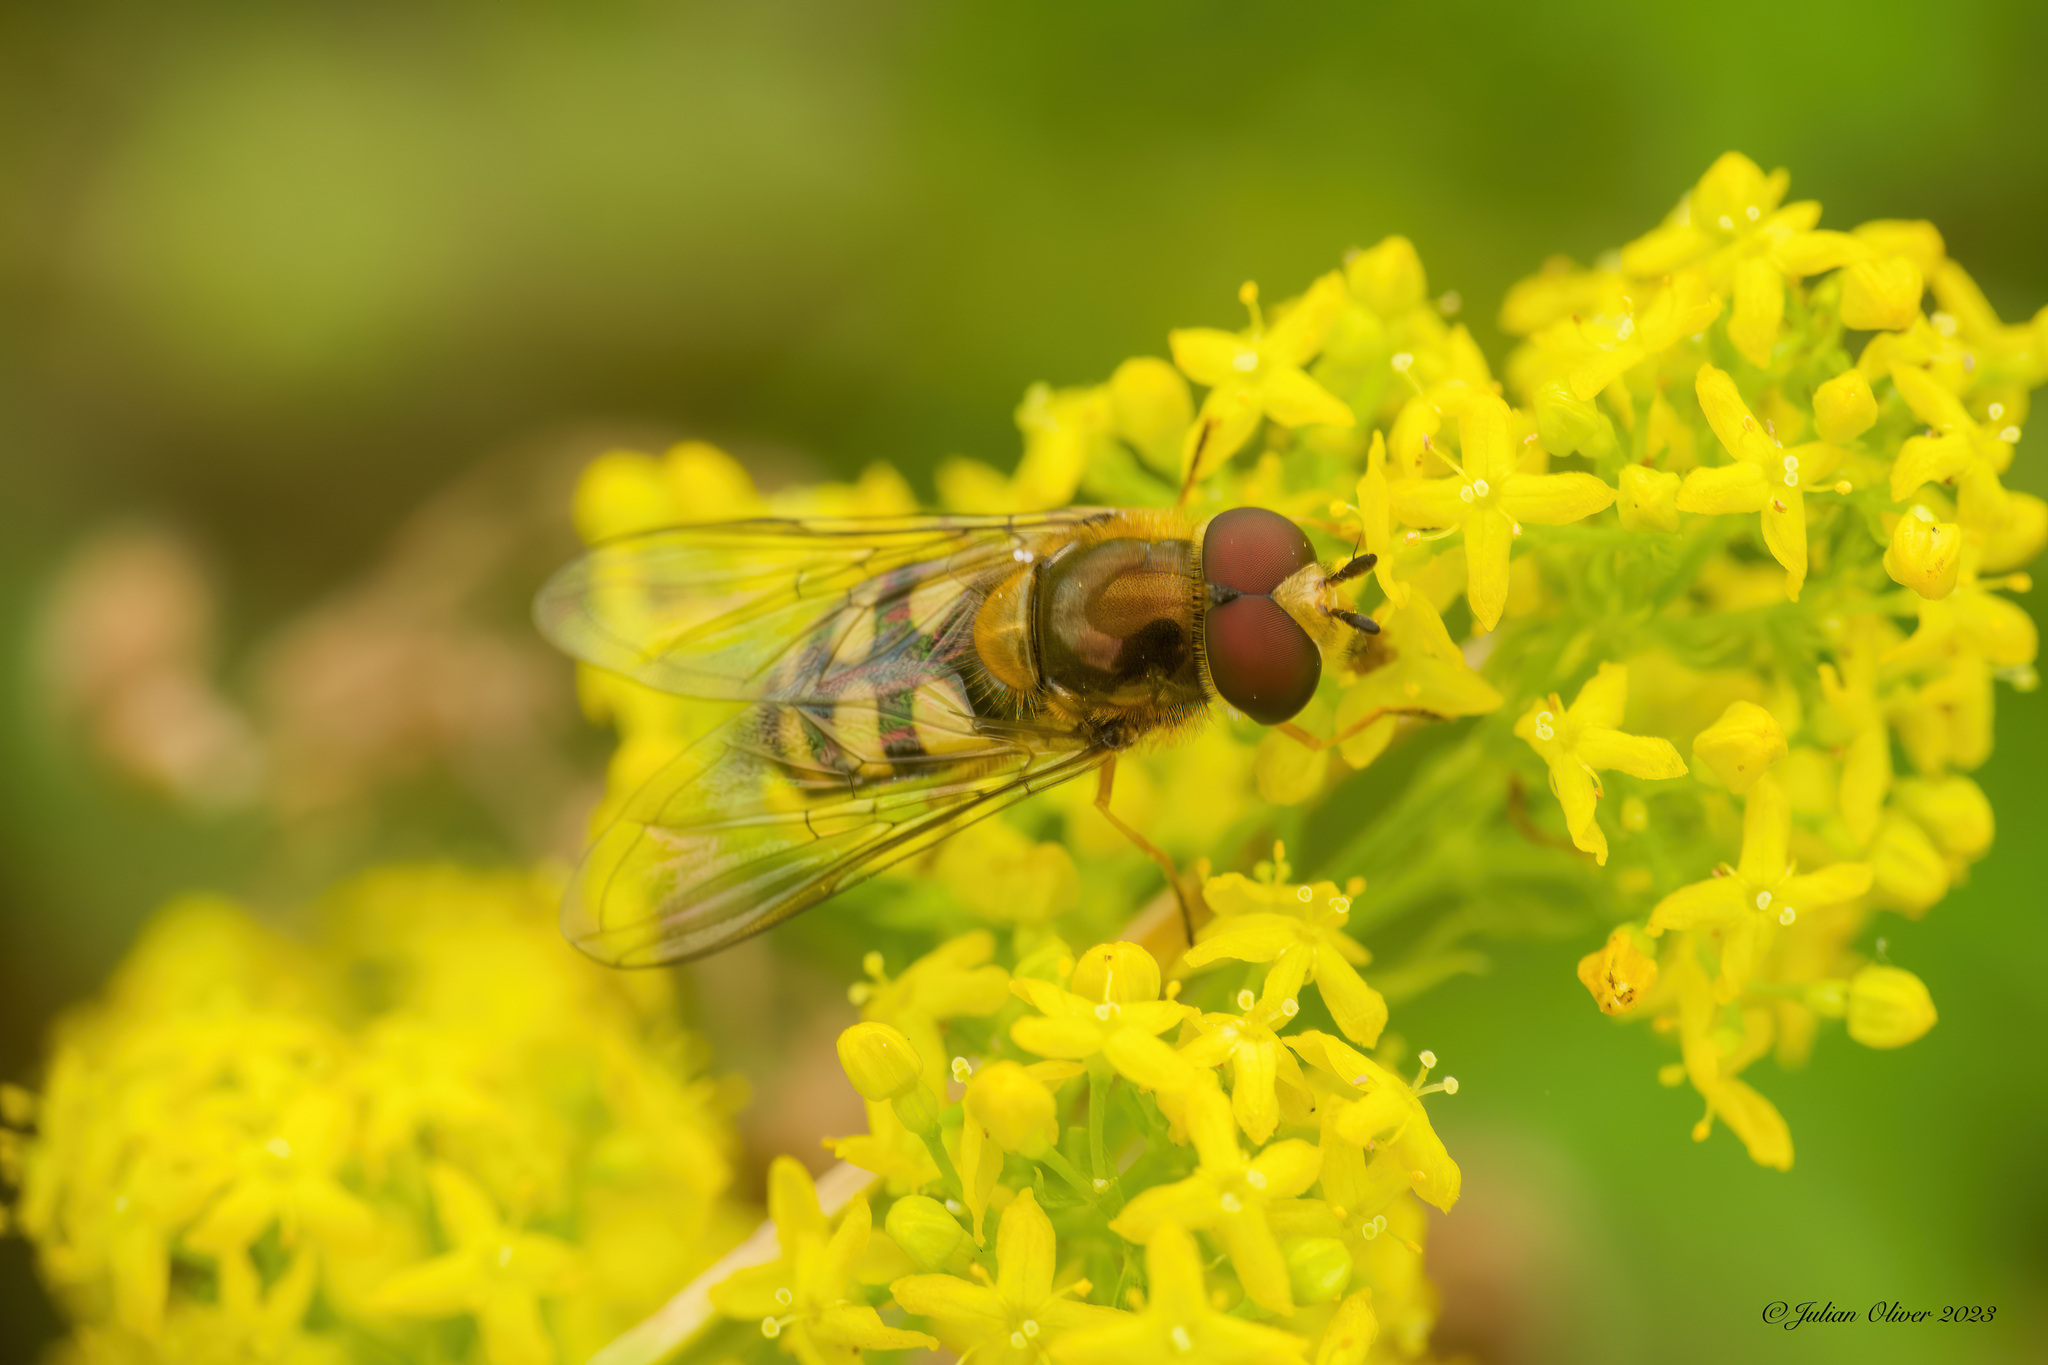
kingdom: Animalia
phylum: Arthropoda
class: Insecta
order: Diptera
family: Syrphidae
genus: Eupeodes
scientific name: Eupeodes
